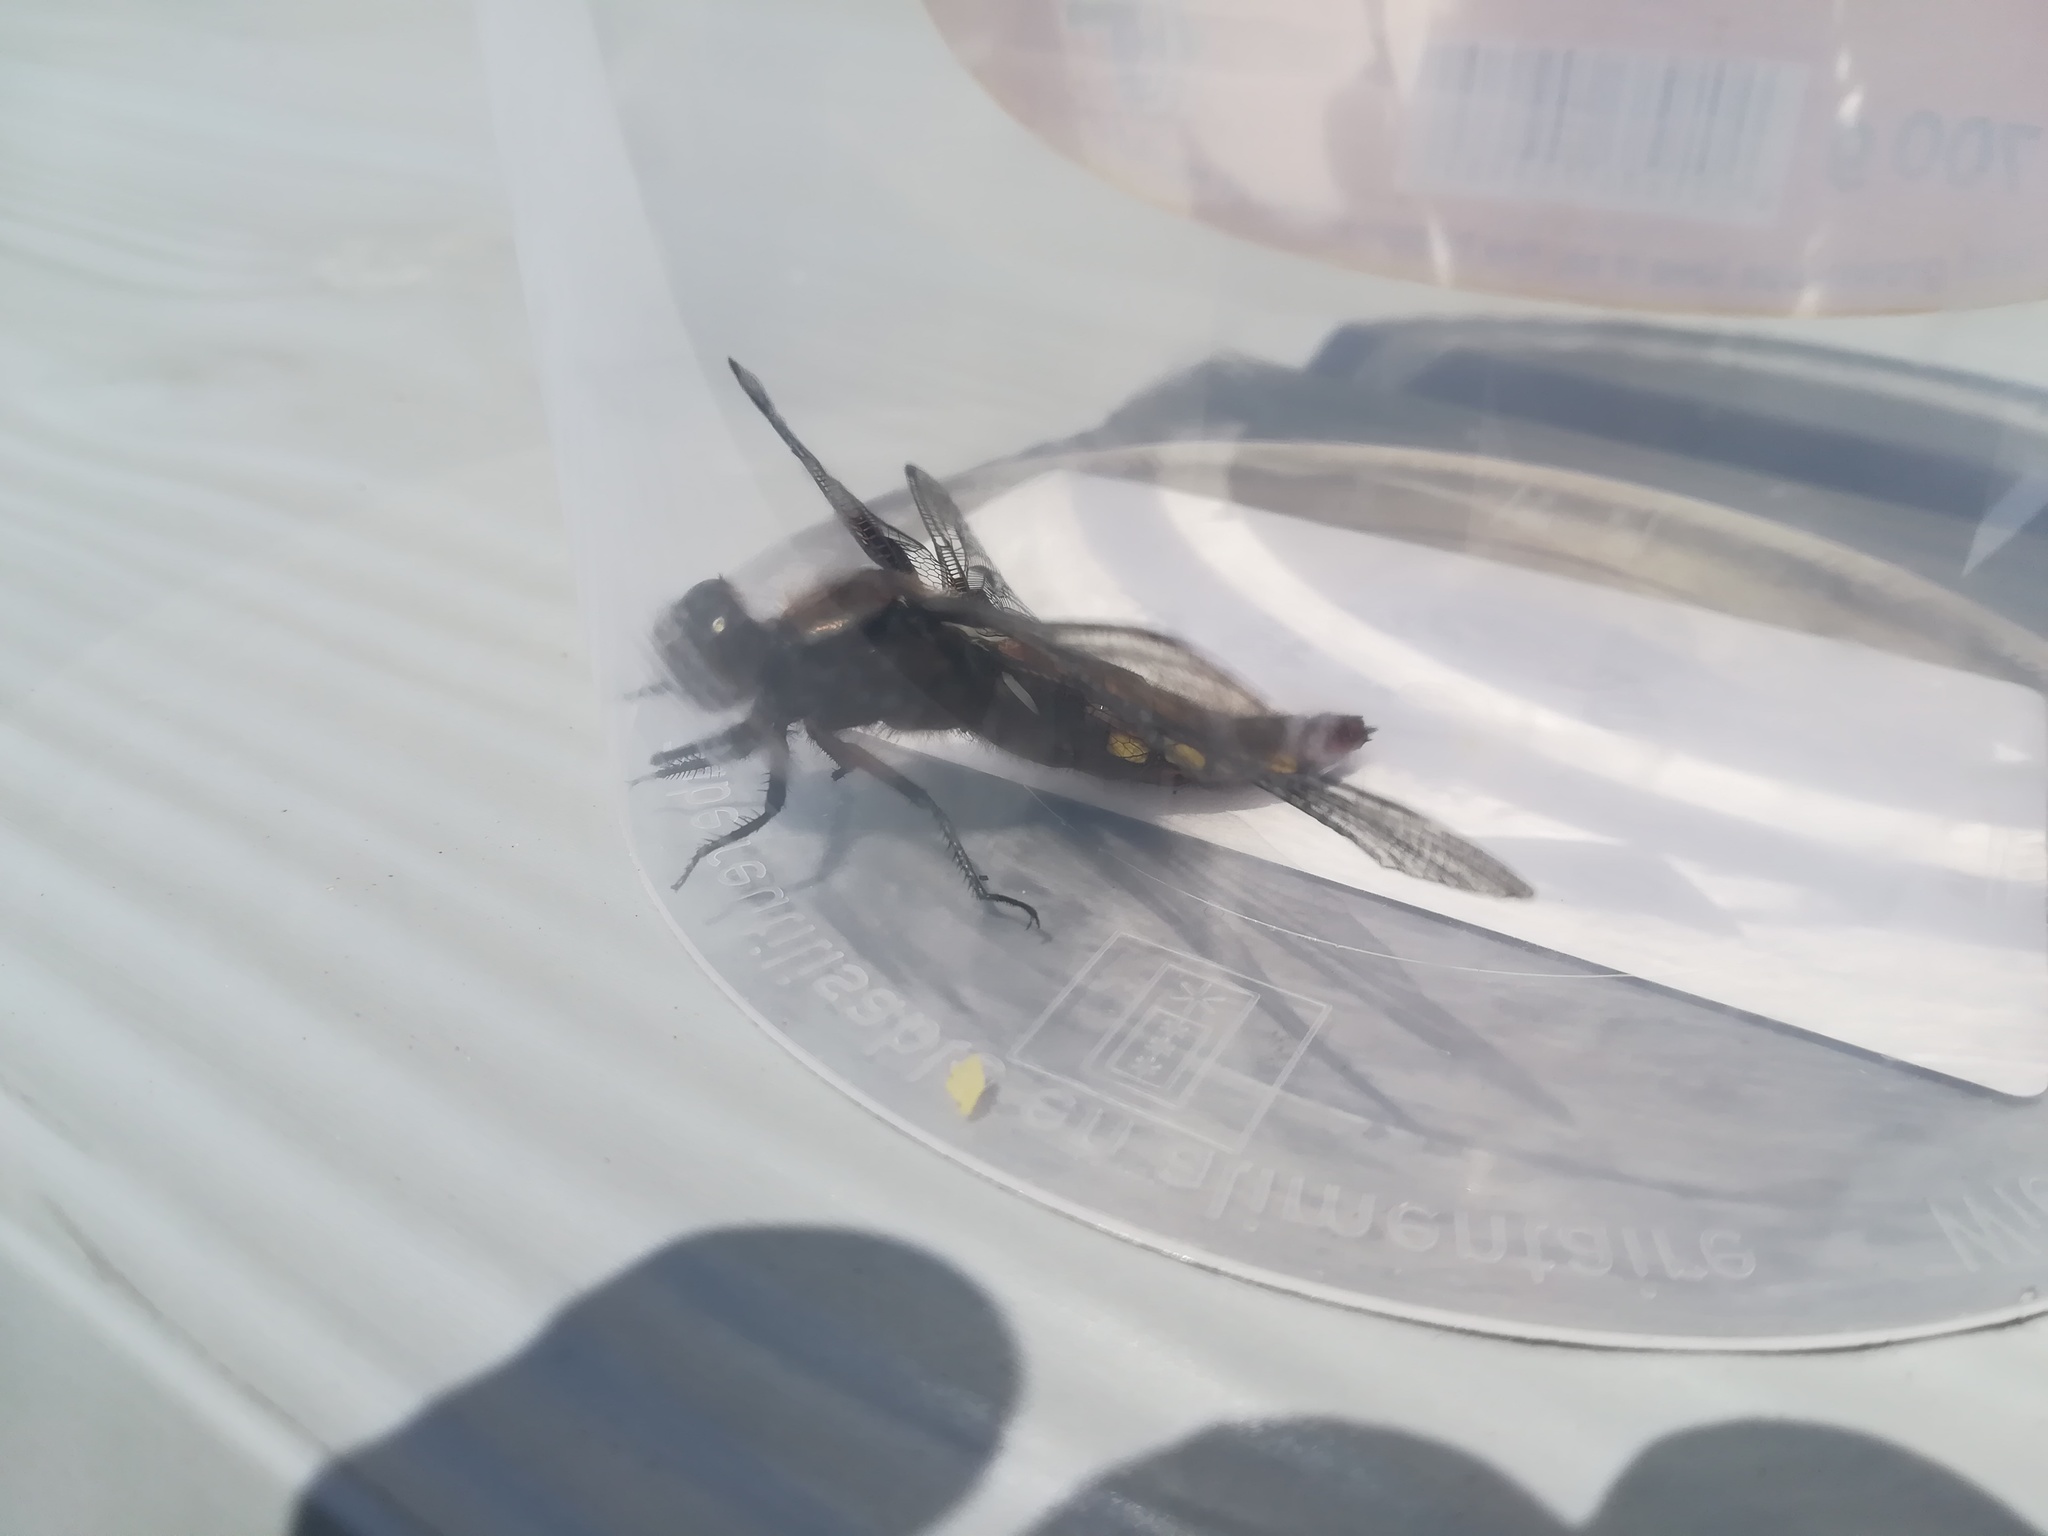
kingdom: Animalia
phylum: Arthropoda
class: Insecta
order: Odonata
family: Libellulidae
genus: Libellula
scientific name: Libellula depressa
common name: Broad-bodied chaser
